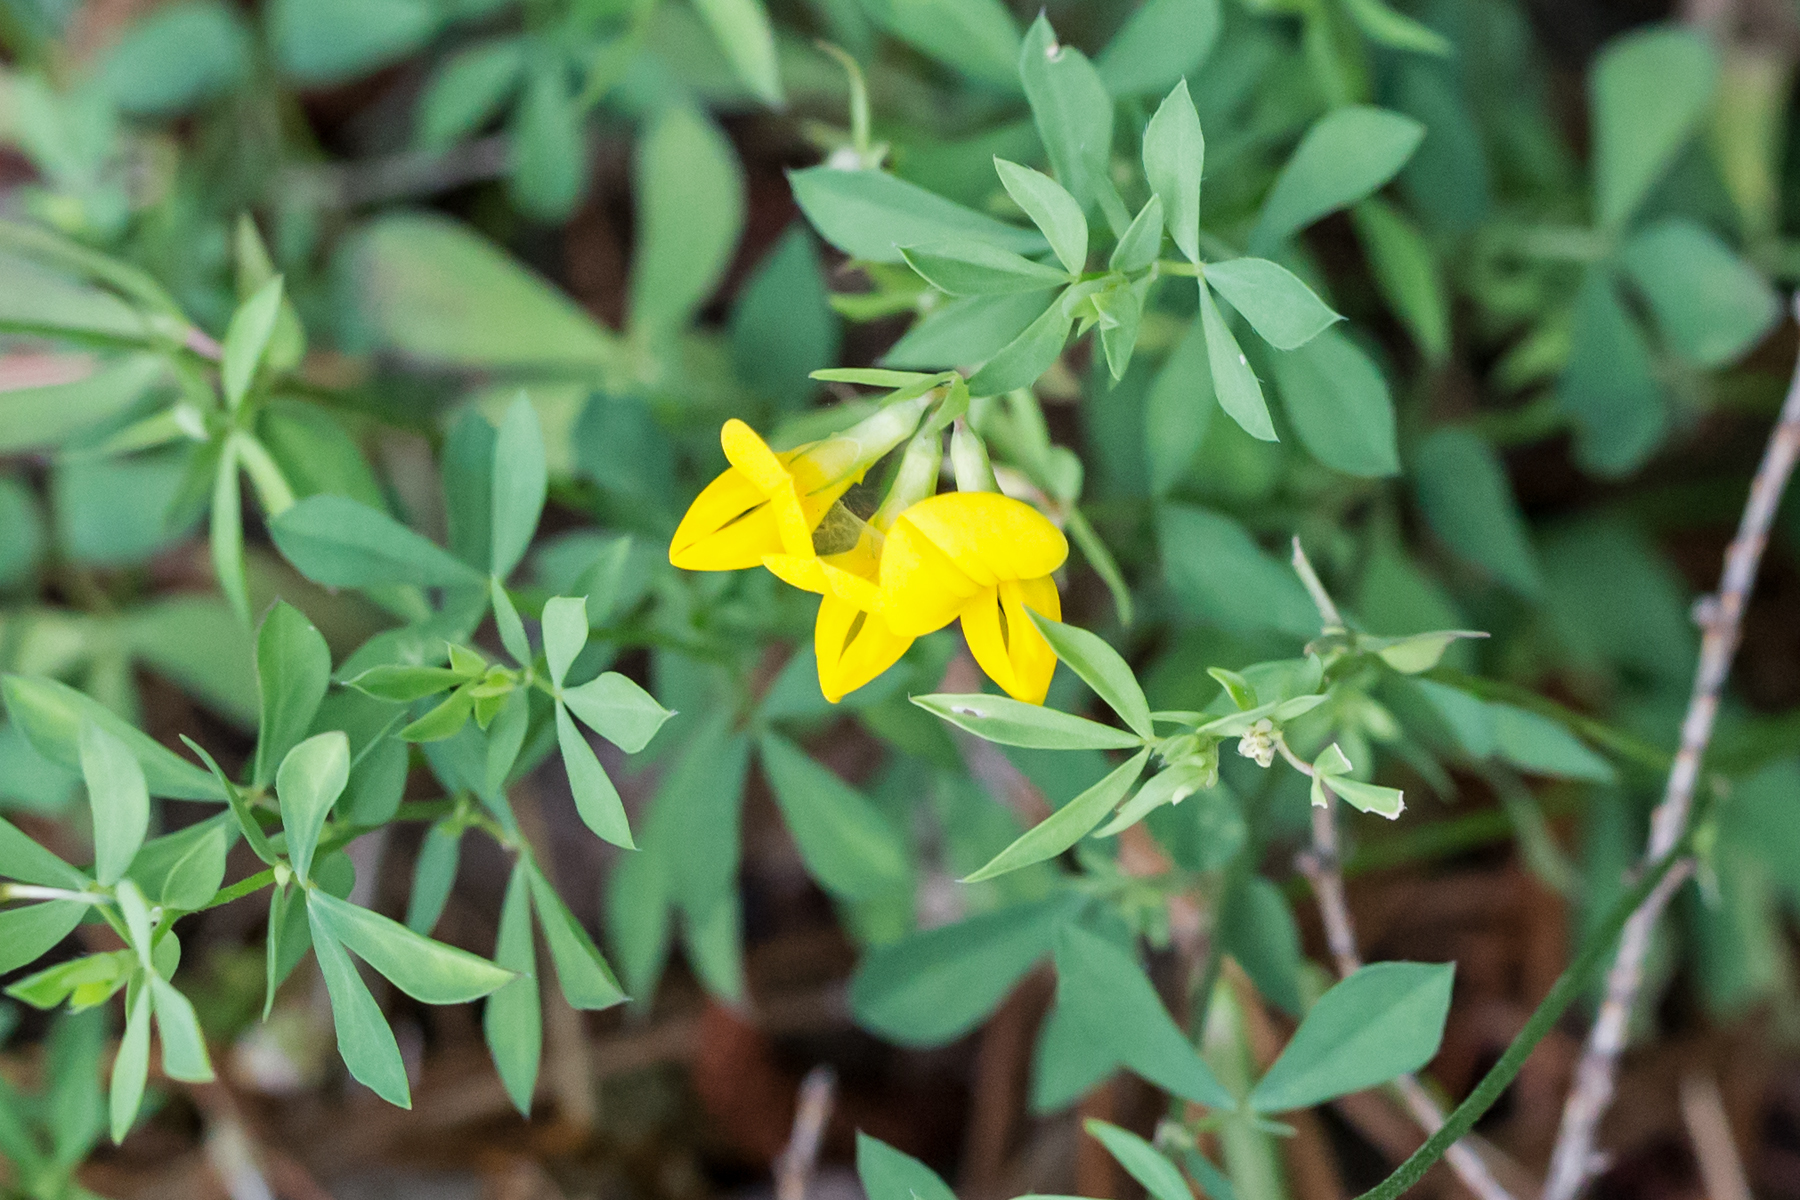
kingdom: Plantae
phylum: Tracheophyta
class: Magnoliopsida
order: Fabales
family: Fabaceae
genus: Lotus
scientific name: Lotus corniculatus
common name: Common bird's-foot-trefoil
